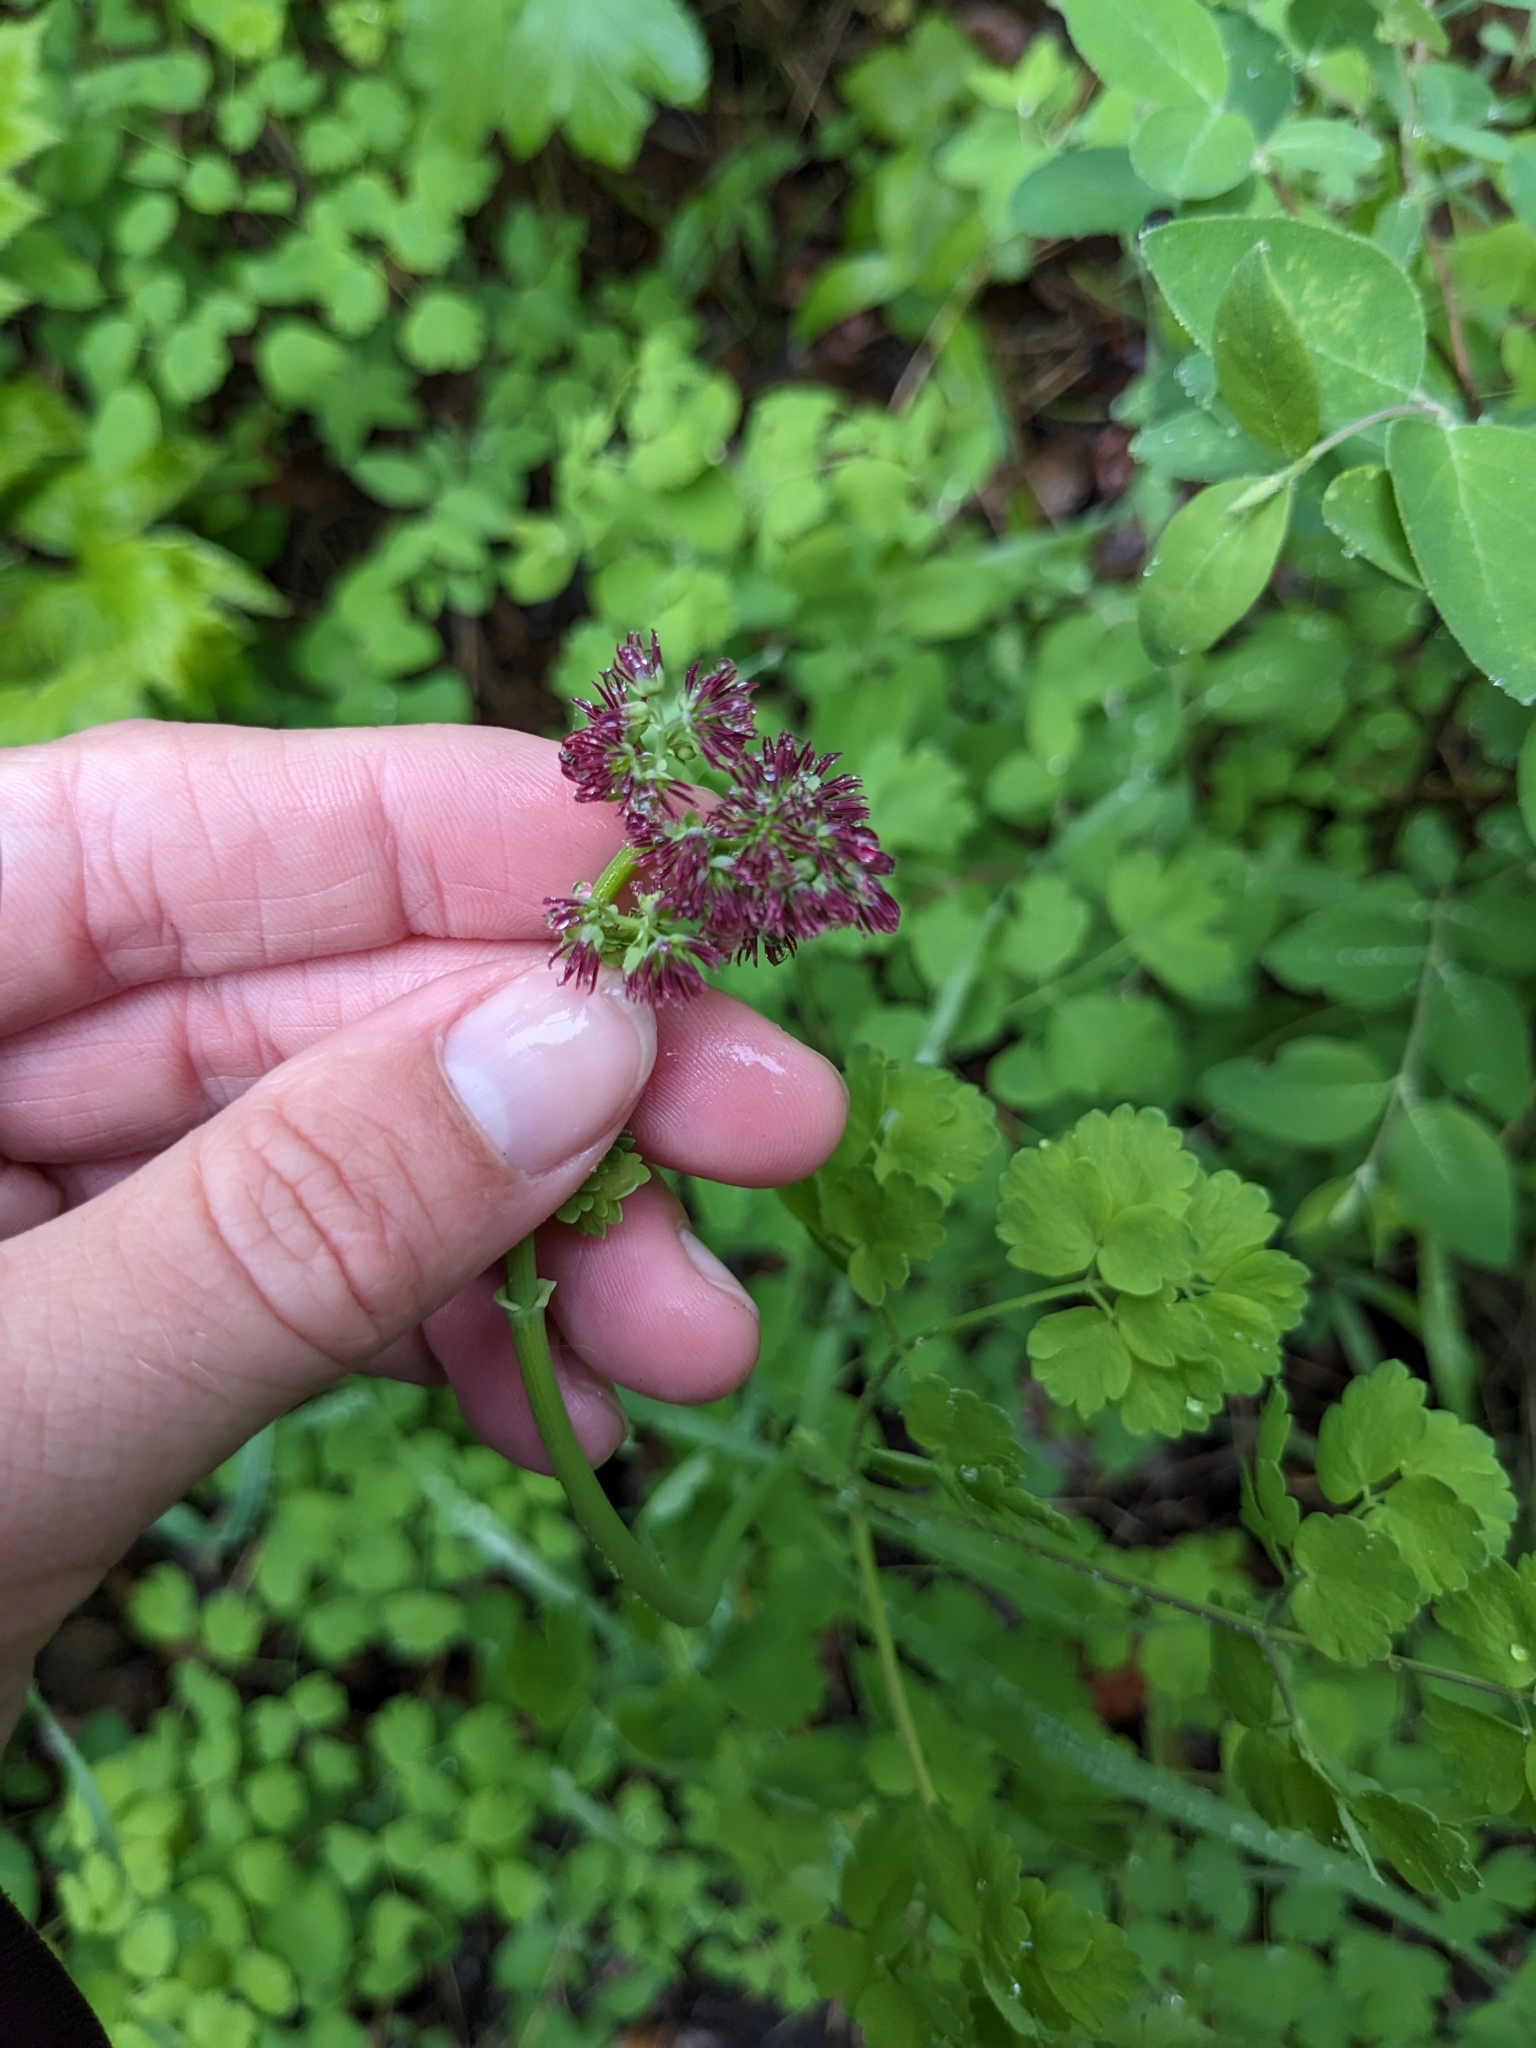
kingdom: Plantae
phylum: Tracheophyta
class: Magnoliopsida
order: Ranunculales
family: Ranunculaceae
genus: Thalictrum
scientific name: Thalictrum venulosum
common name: Early meadow-rue
